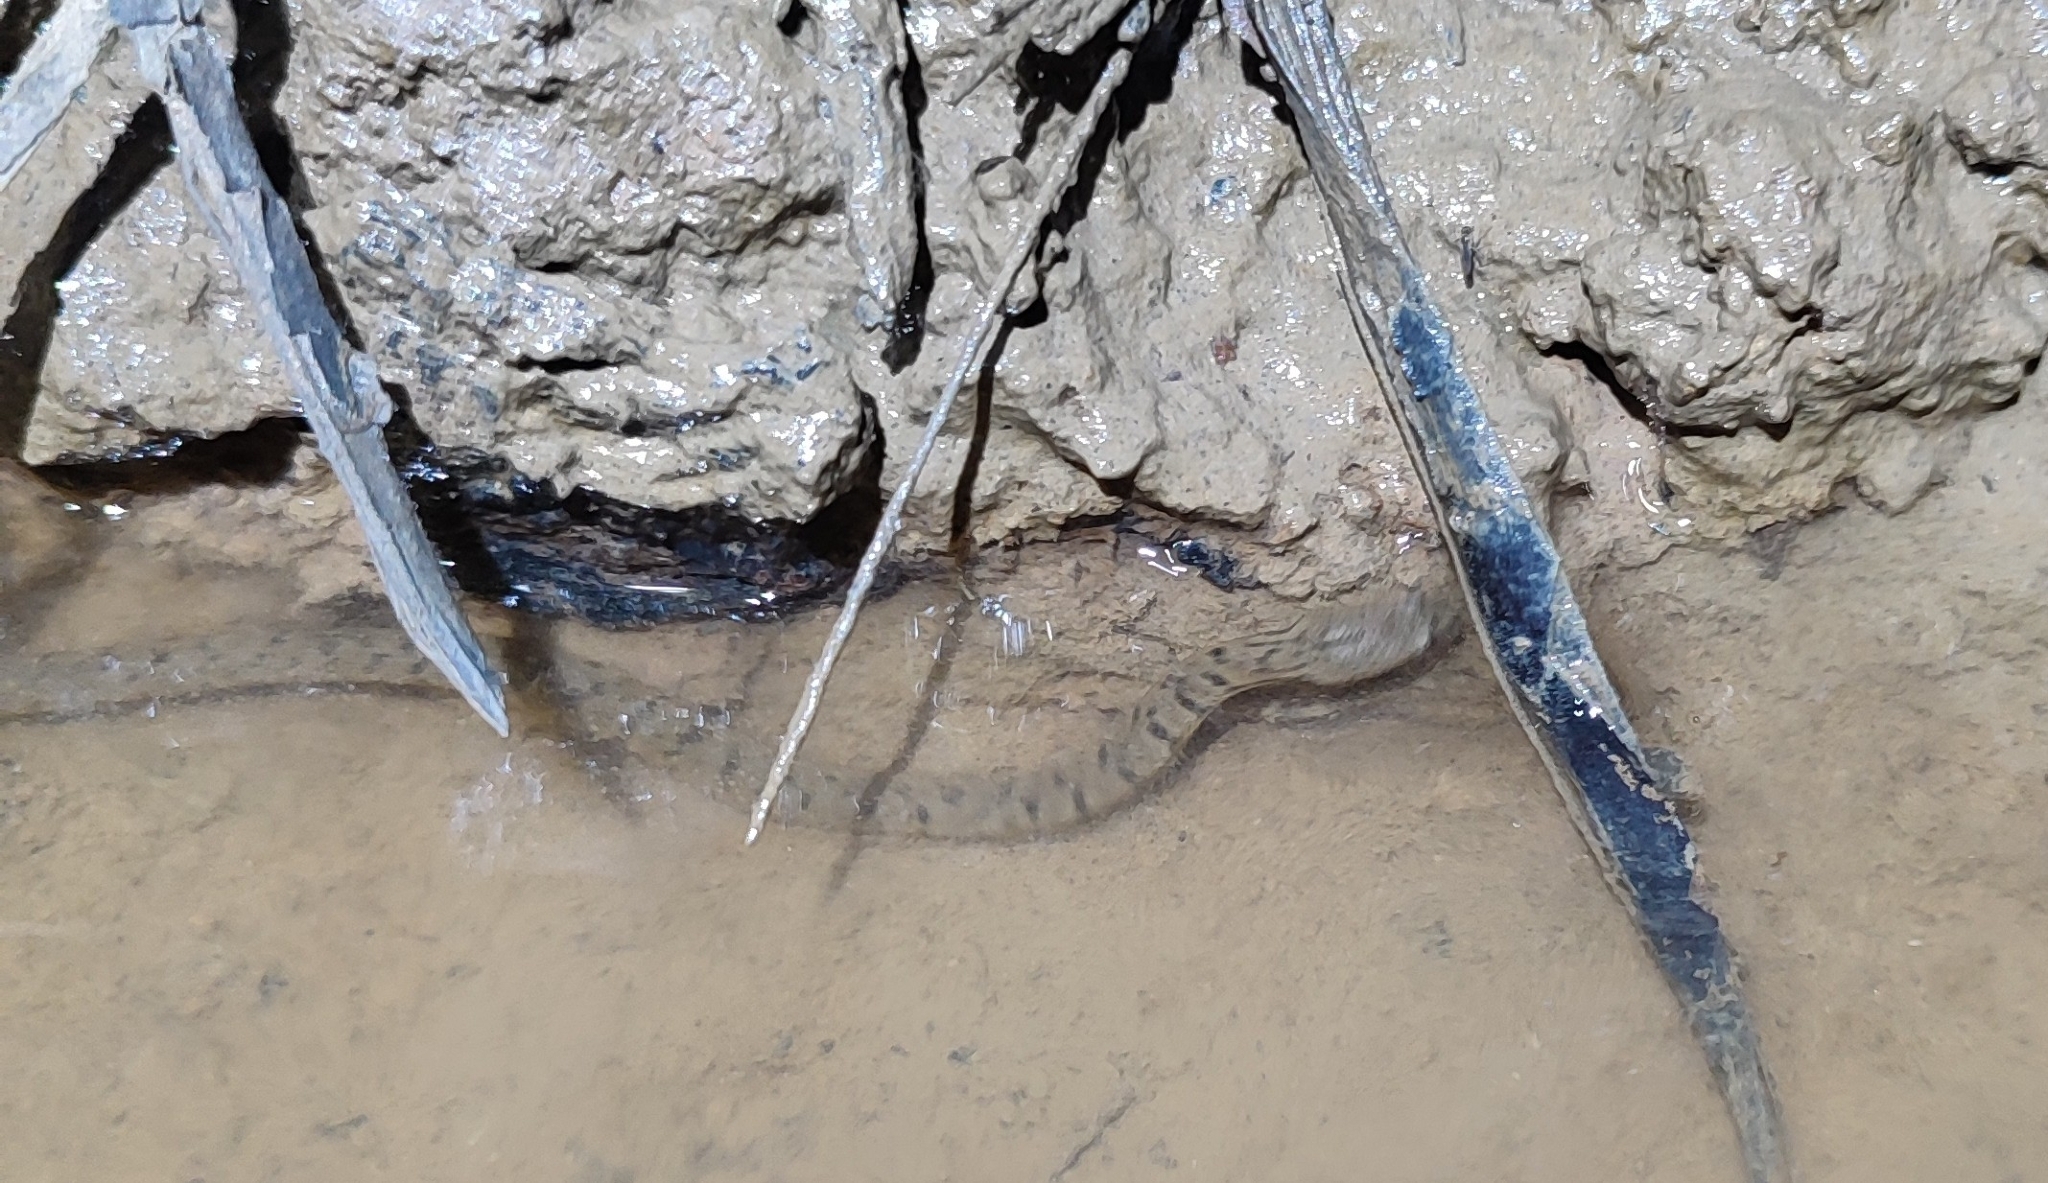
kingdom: Animalia
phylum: Chordata
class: Squamata
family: Homalopsidae
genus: Cerberus
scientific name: Cerberus schneiderii
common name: Southeast asian bockadam
